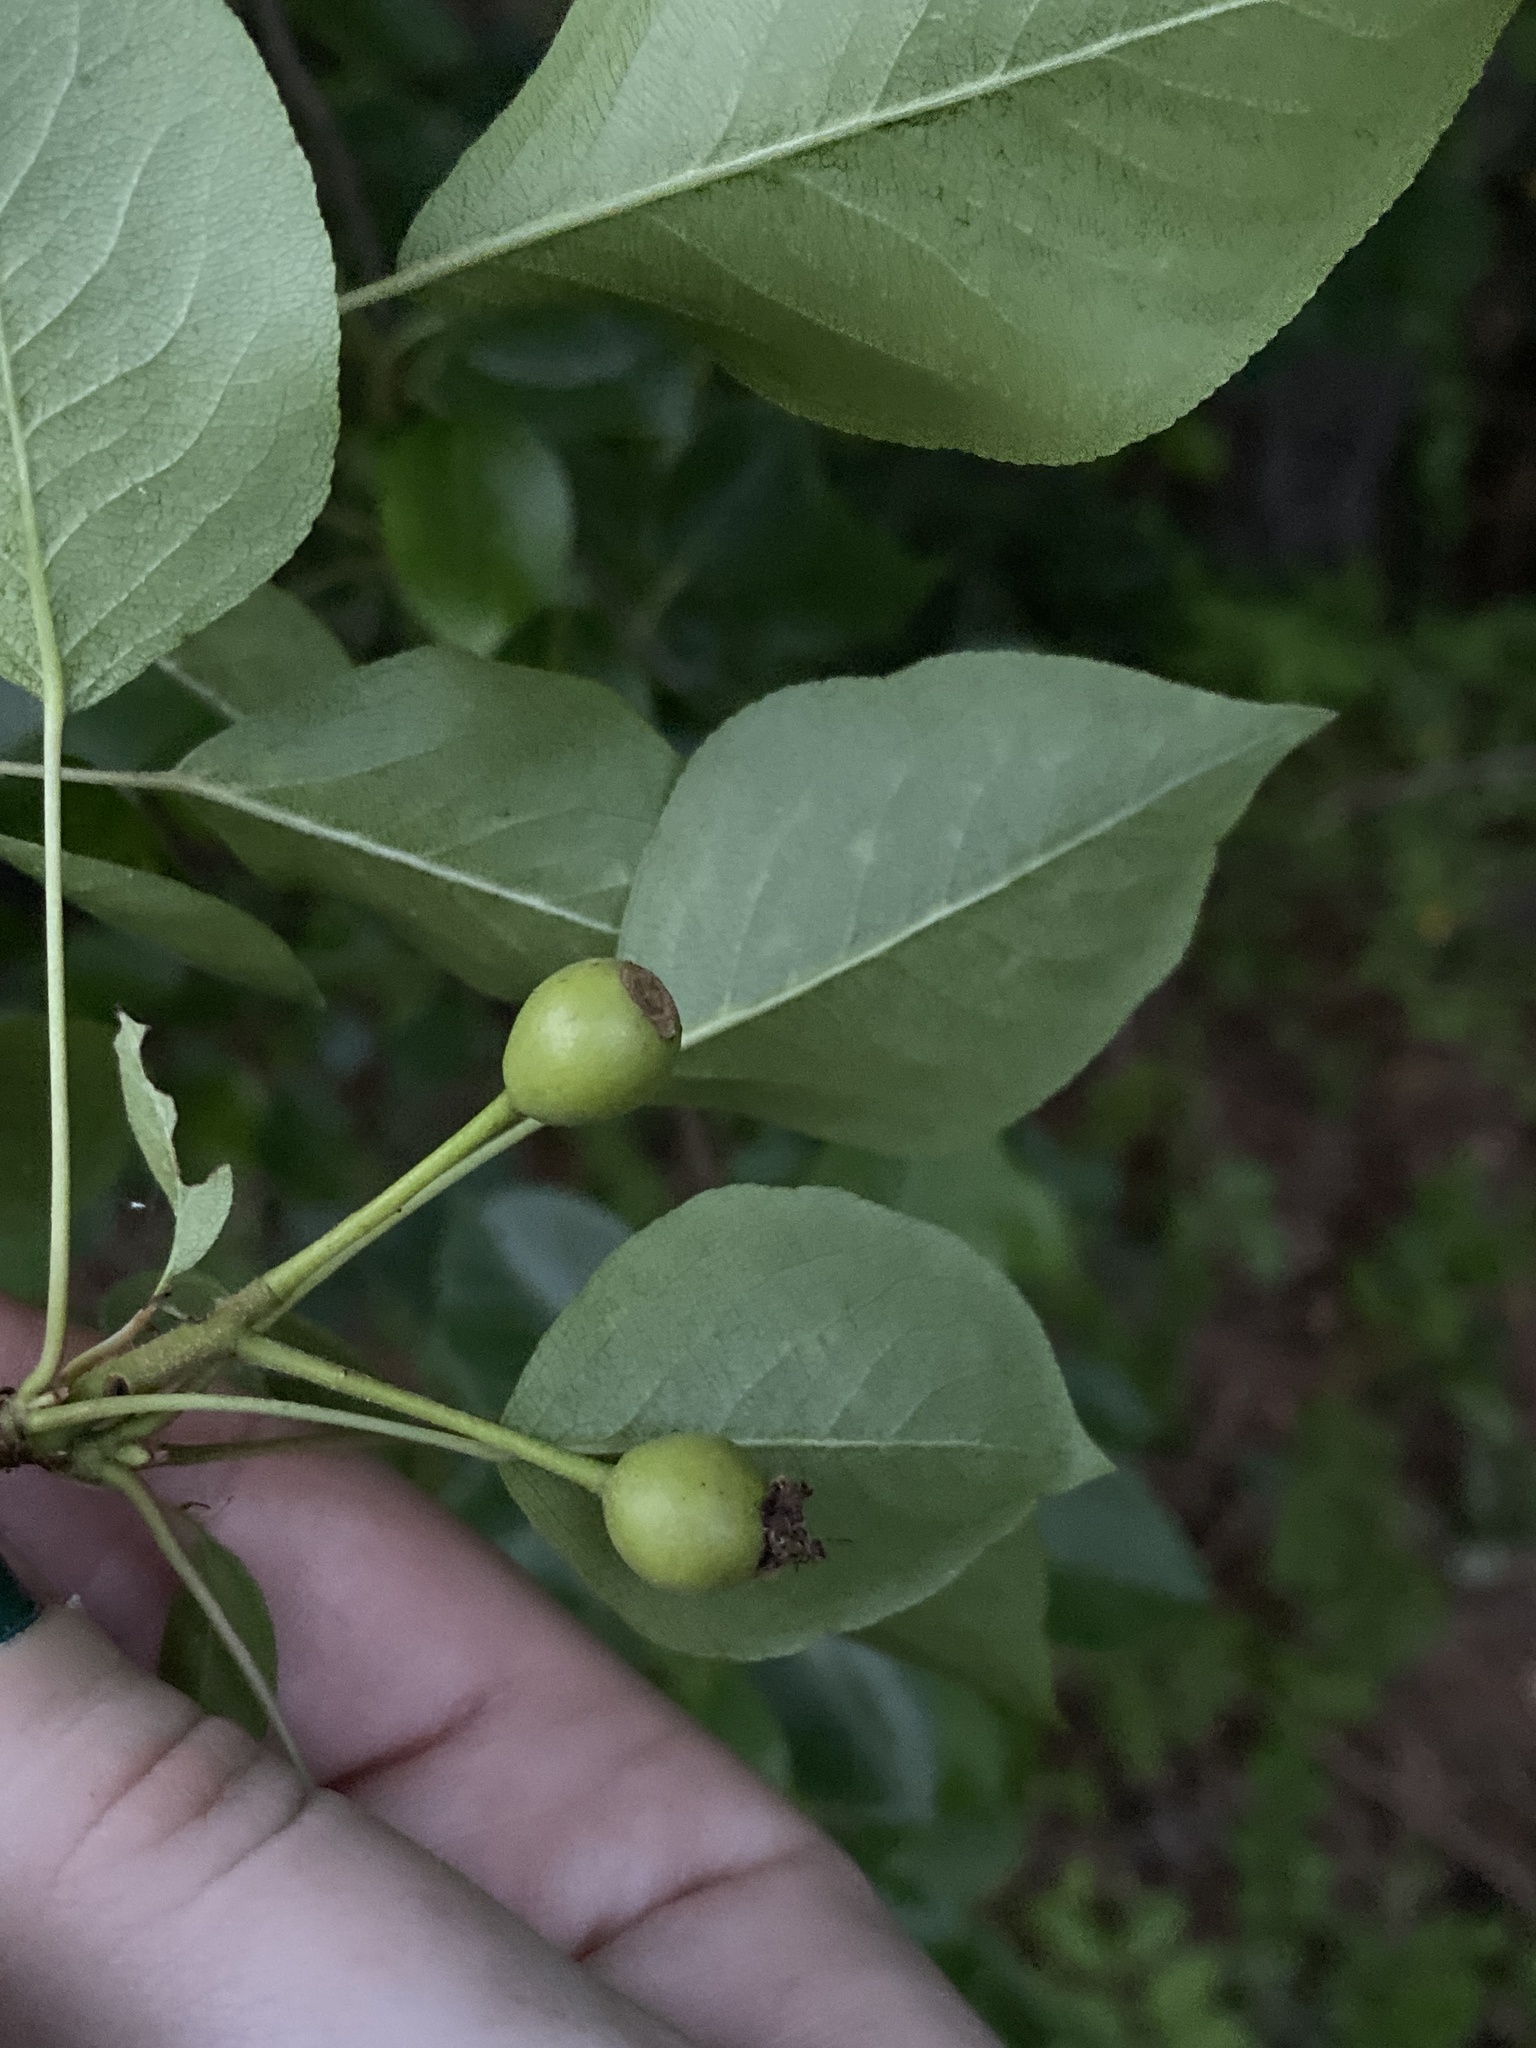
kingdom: Plantae
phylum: Tracheophyta
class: Magnoliopsida
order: Rosales
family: Rosaceae
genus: Pyrus
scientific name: Pyrus calleryana
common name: Callery pear
